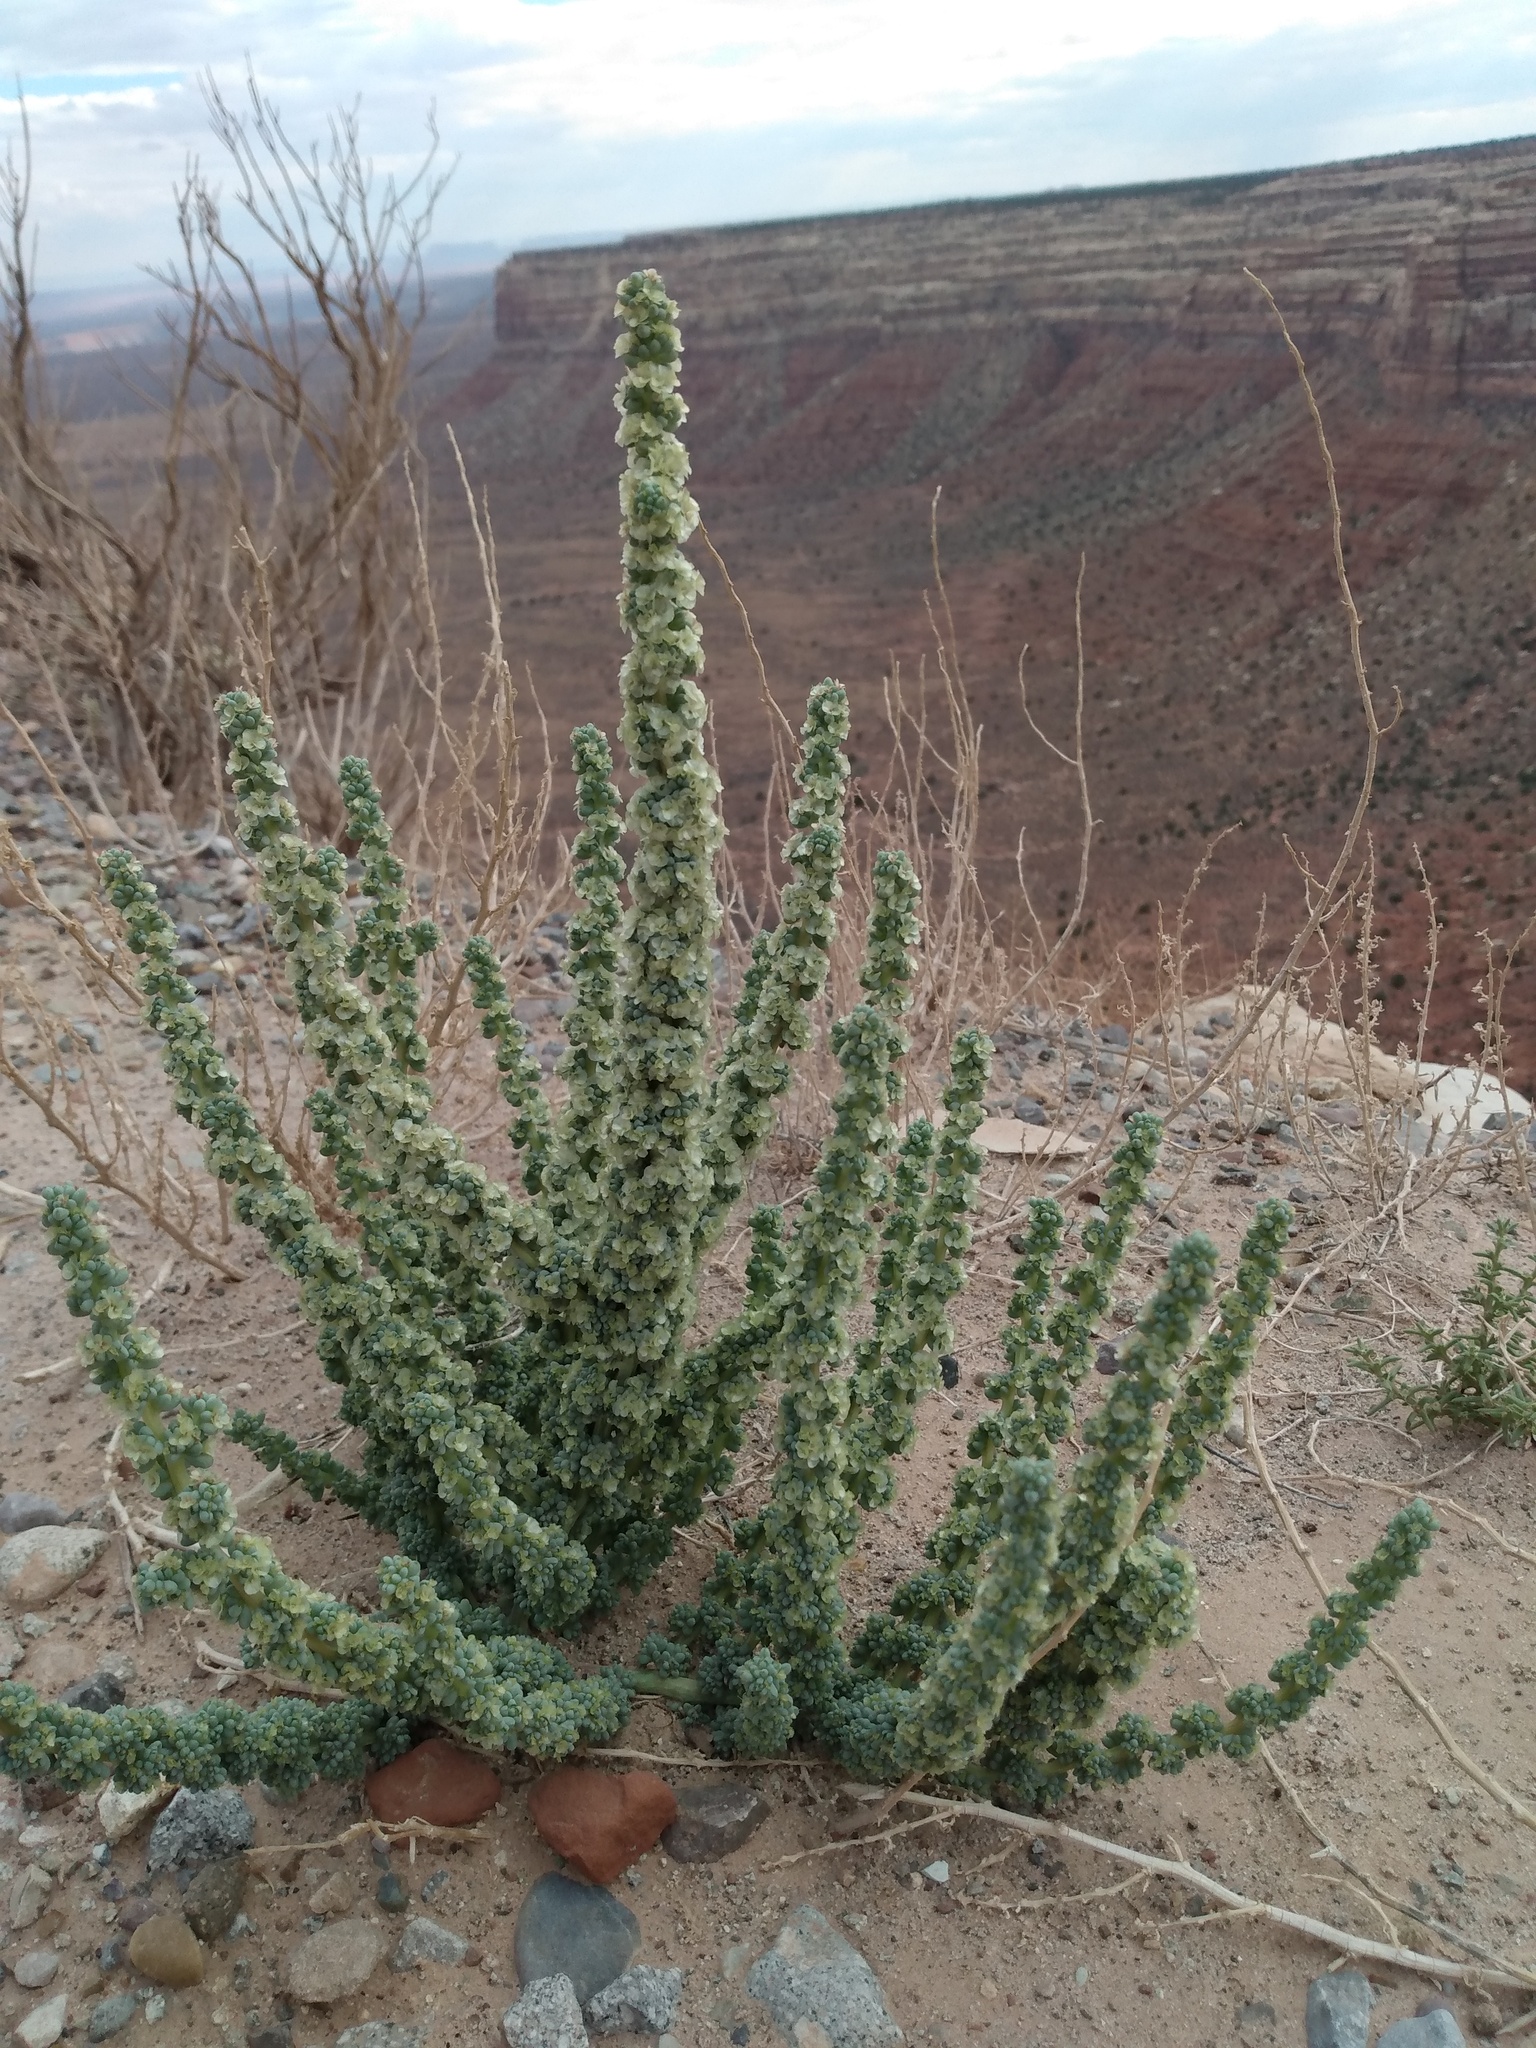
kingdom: Plantae
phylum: Tracheophyta
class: Magnoliopsida
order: Caryophyllales
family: Amaranthaceae
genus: Halogeton
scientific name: Halogeton glomeratus
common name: Saltlover
